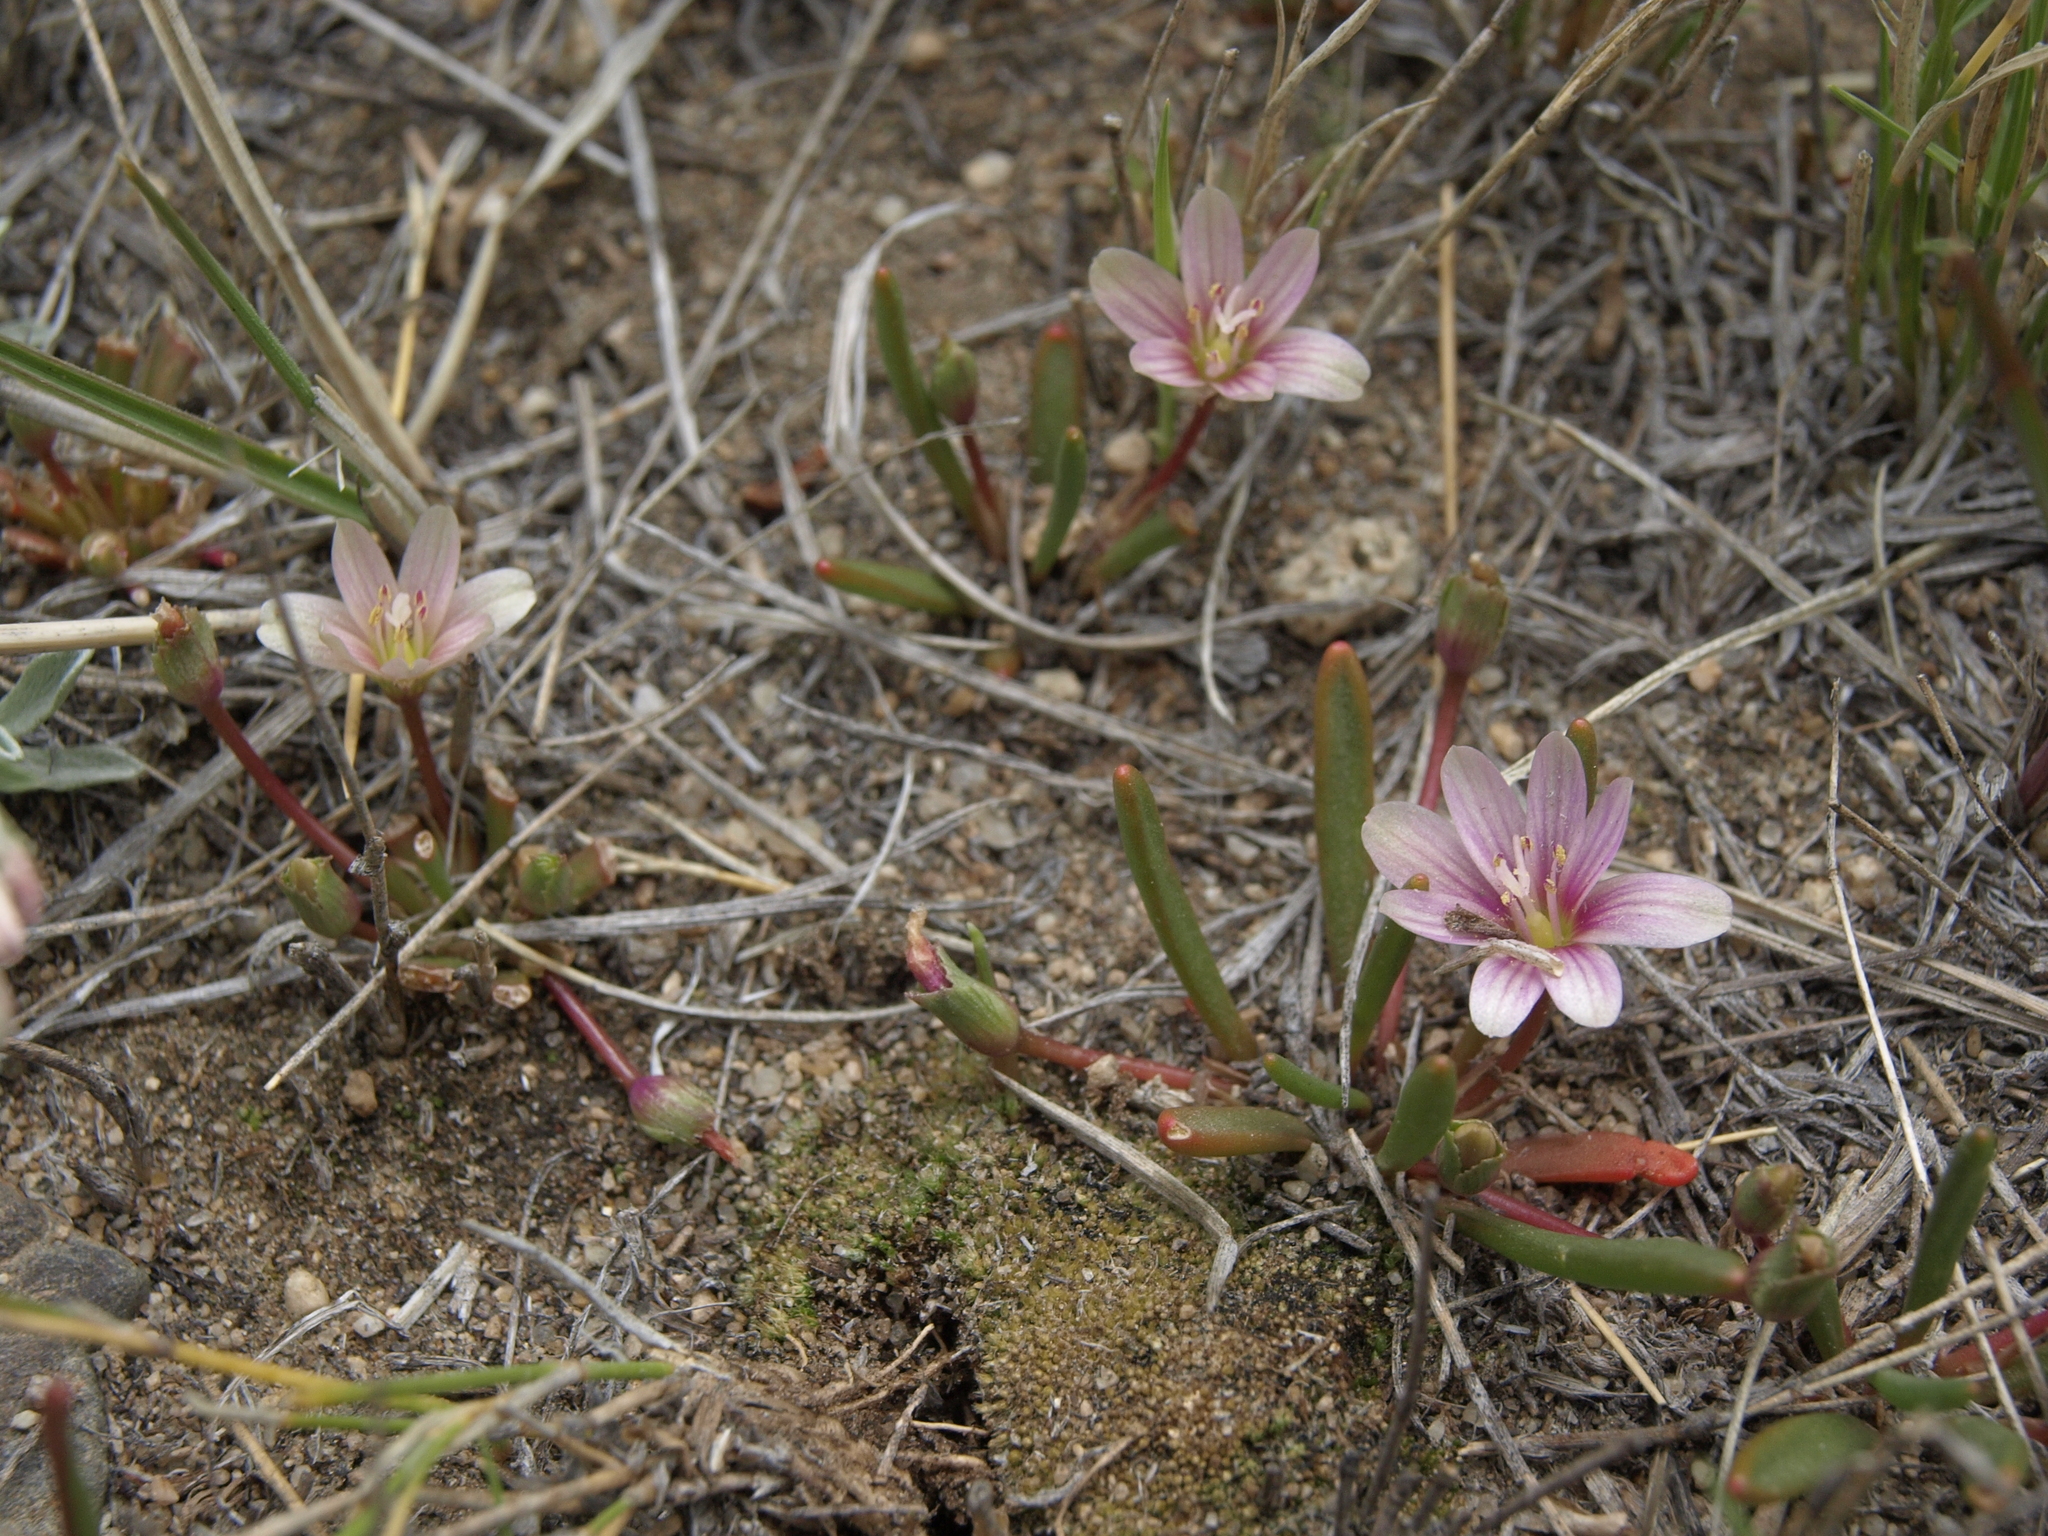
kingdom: Plantae
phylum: Tracheophyta
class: Magnoliopsida
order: Caryophyllales
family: Montiaceae
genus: Lewisia
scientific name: Lewisia pygmaea
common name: Alpine bitterroot
